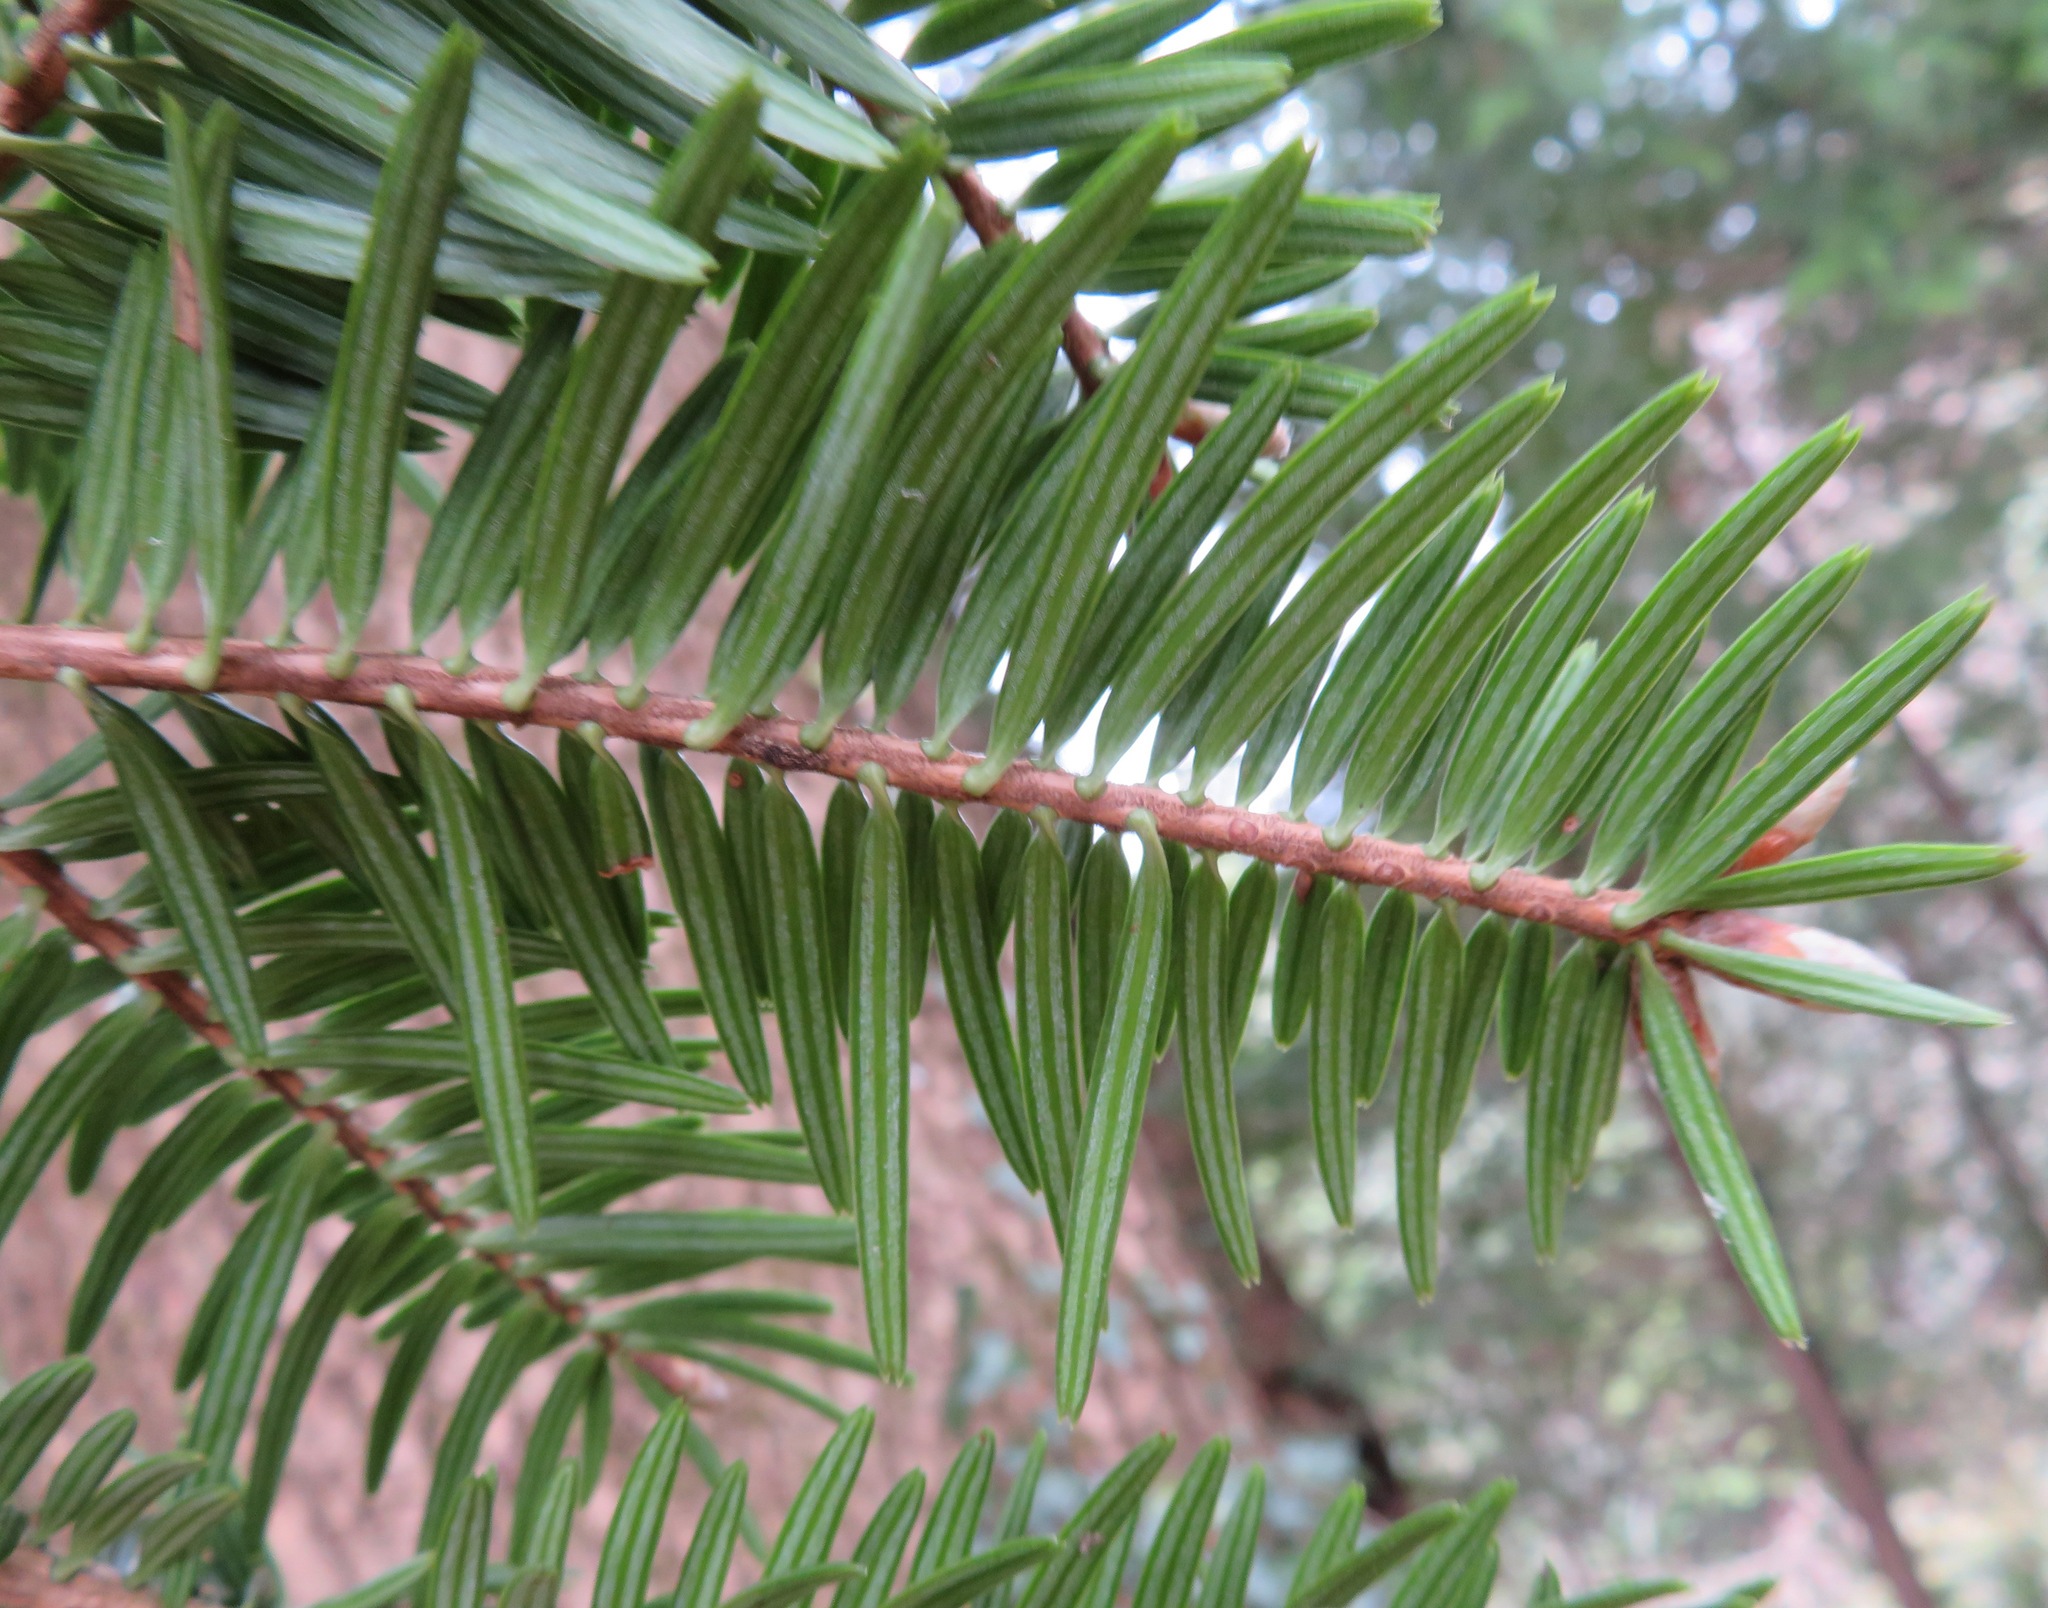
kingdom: Plantae
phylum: Tracheophyta
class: Pinopsida
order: Pinales
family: Pinaceae
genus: Abies
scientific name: Abies firma
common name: Momi fir
